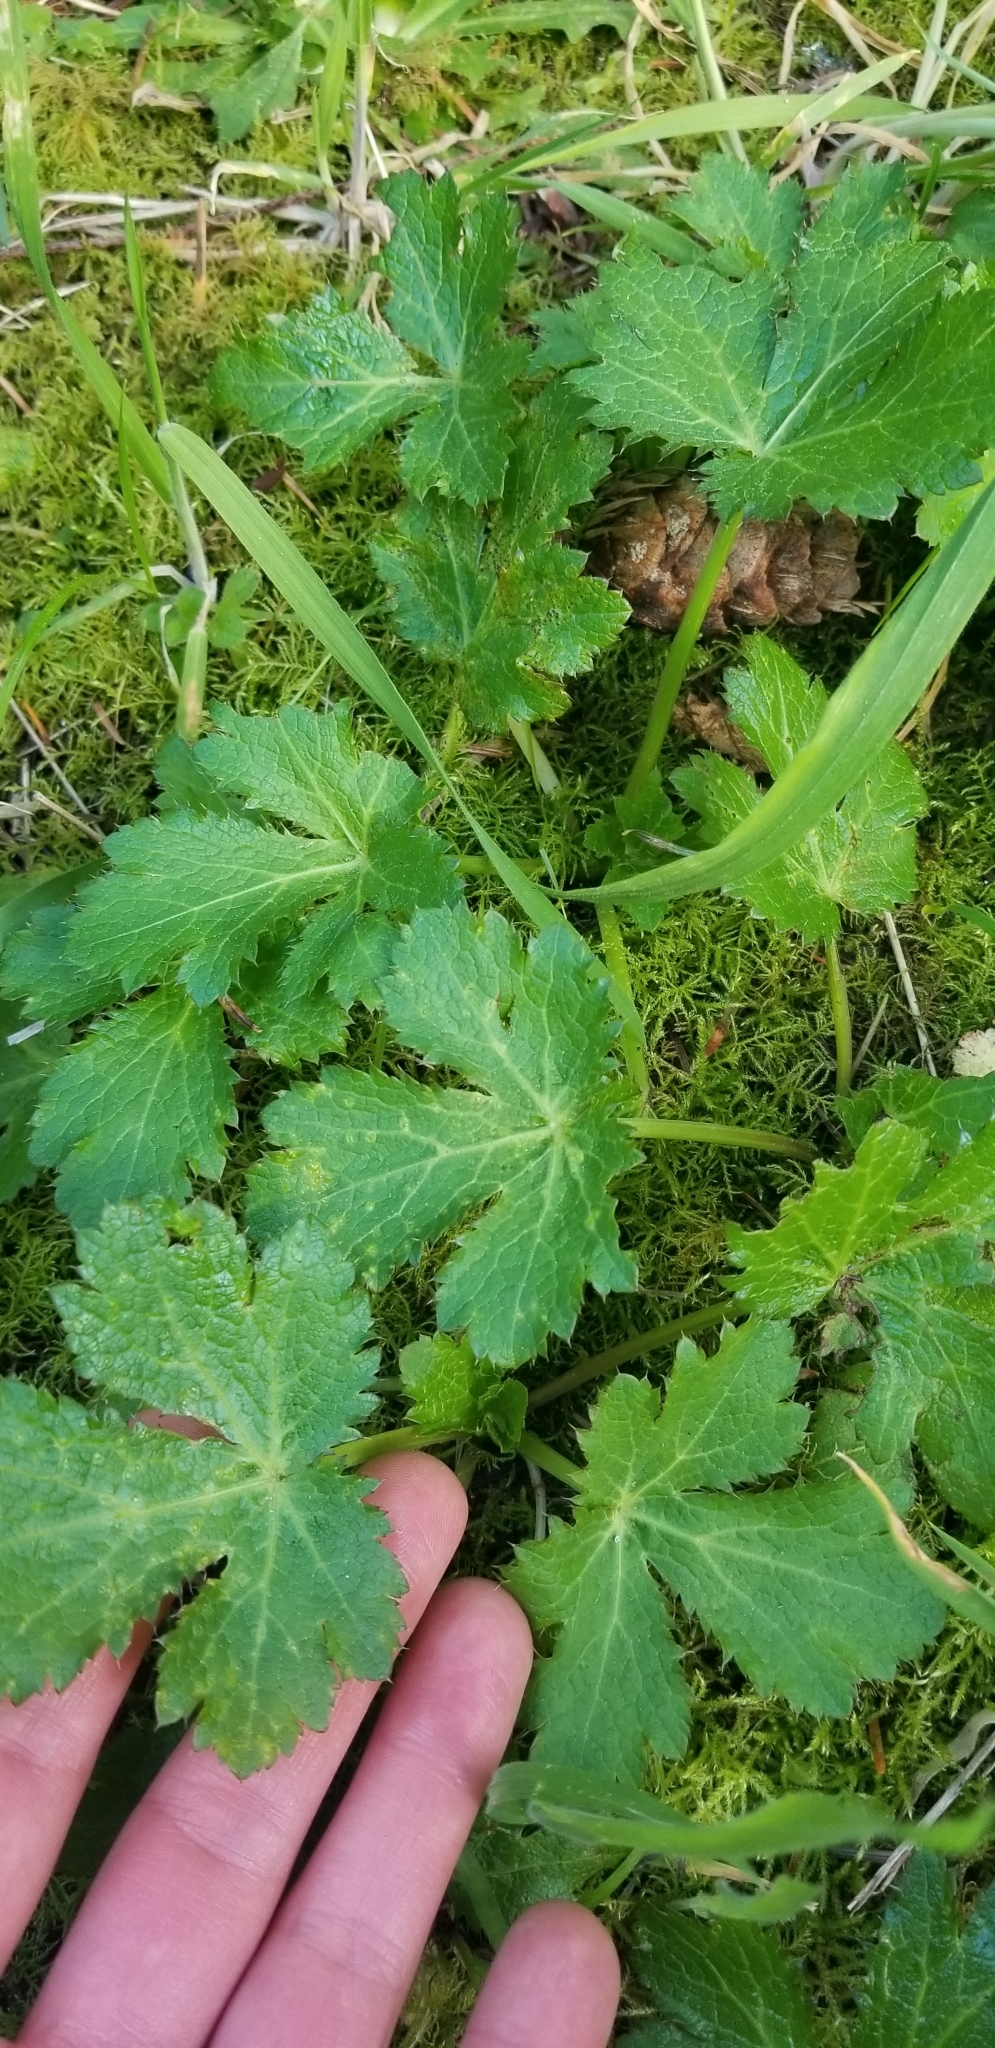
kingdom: Plantae
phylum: Tracheophyta
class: Magnoliopsida
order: Apiales
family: Apiaceae
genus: Sanicula
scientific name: Sanicula crassicaulis
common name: Western snakeroot
